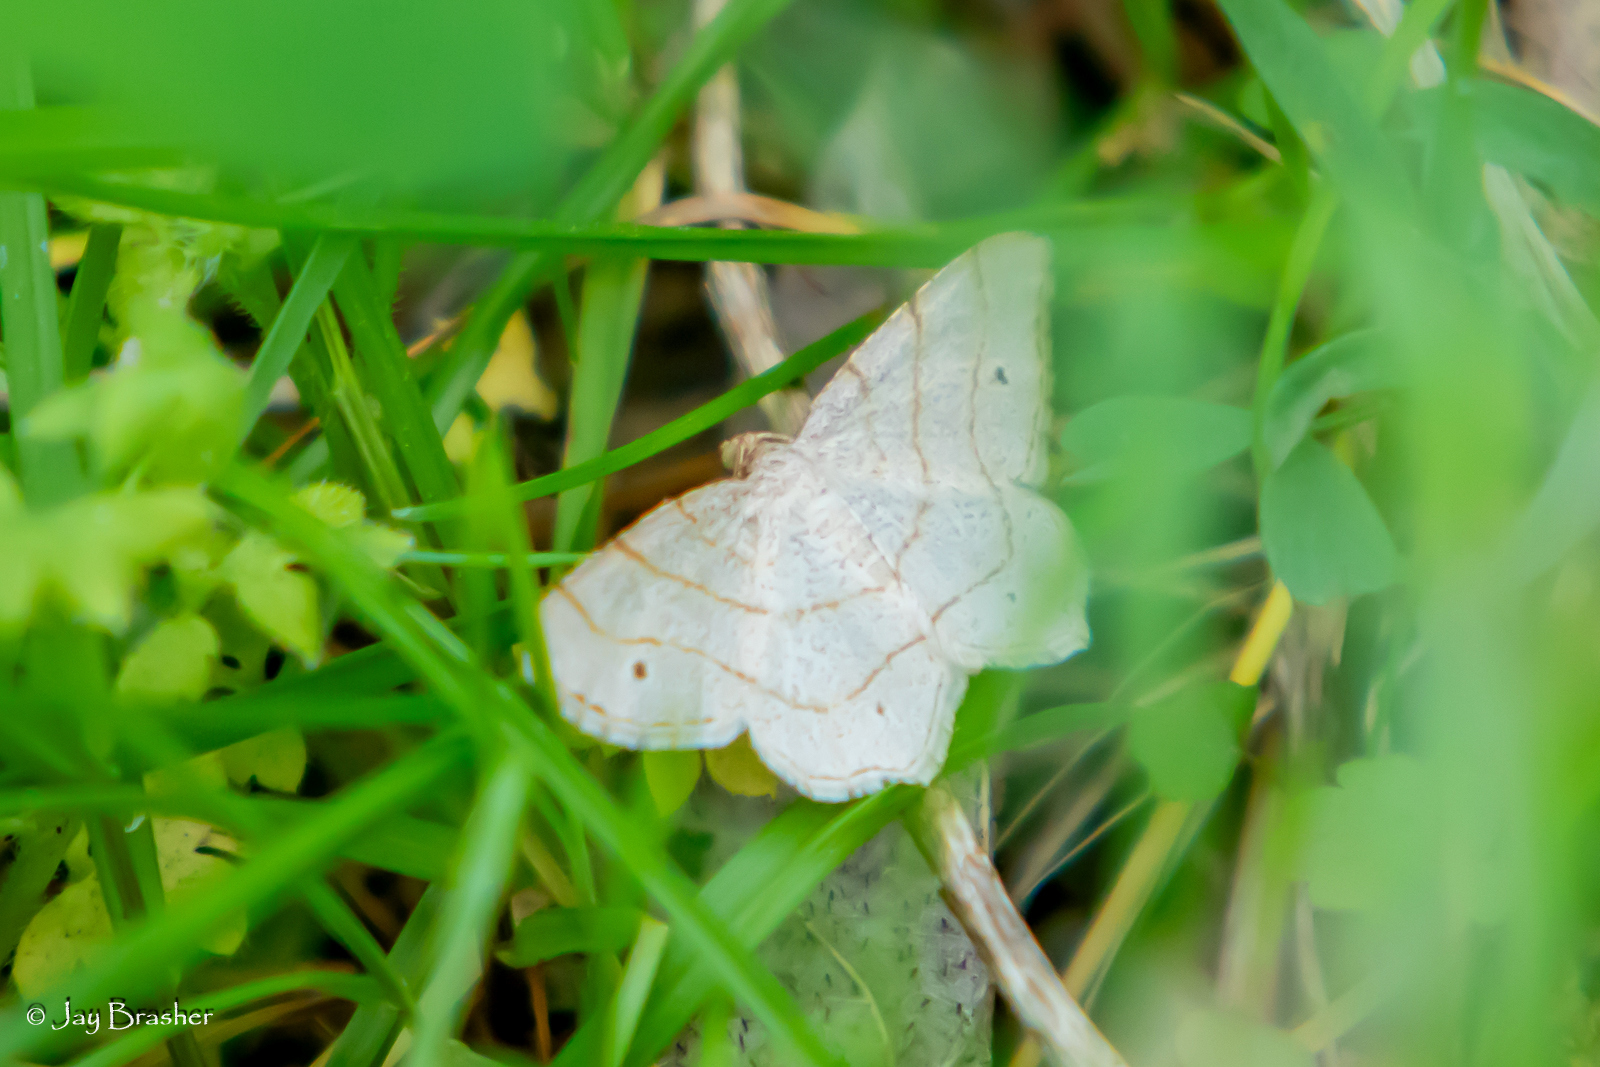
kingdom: Animalia
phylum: Arthropoda
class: Insecta
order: Lepidoptera
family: Geometridae
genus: Trigrammia
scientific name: Trigrammia quadrinotaria
